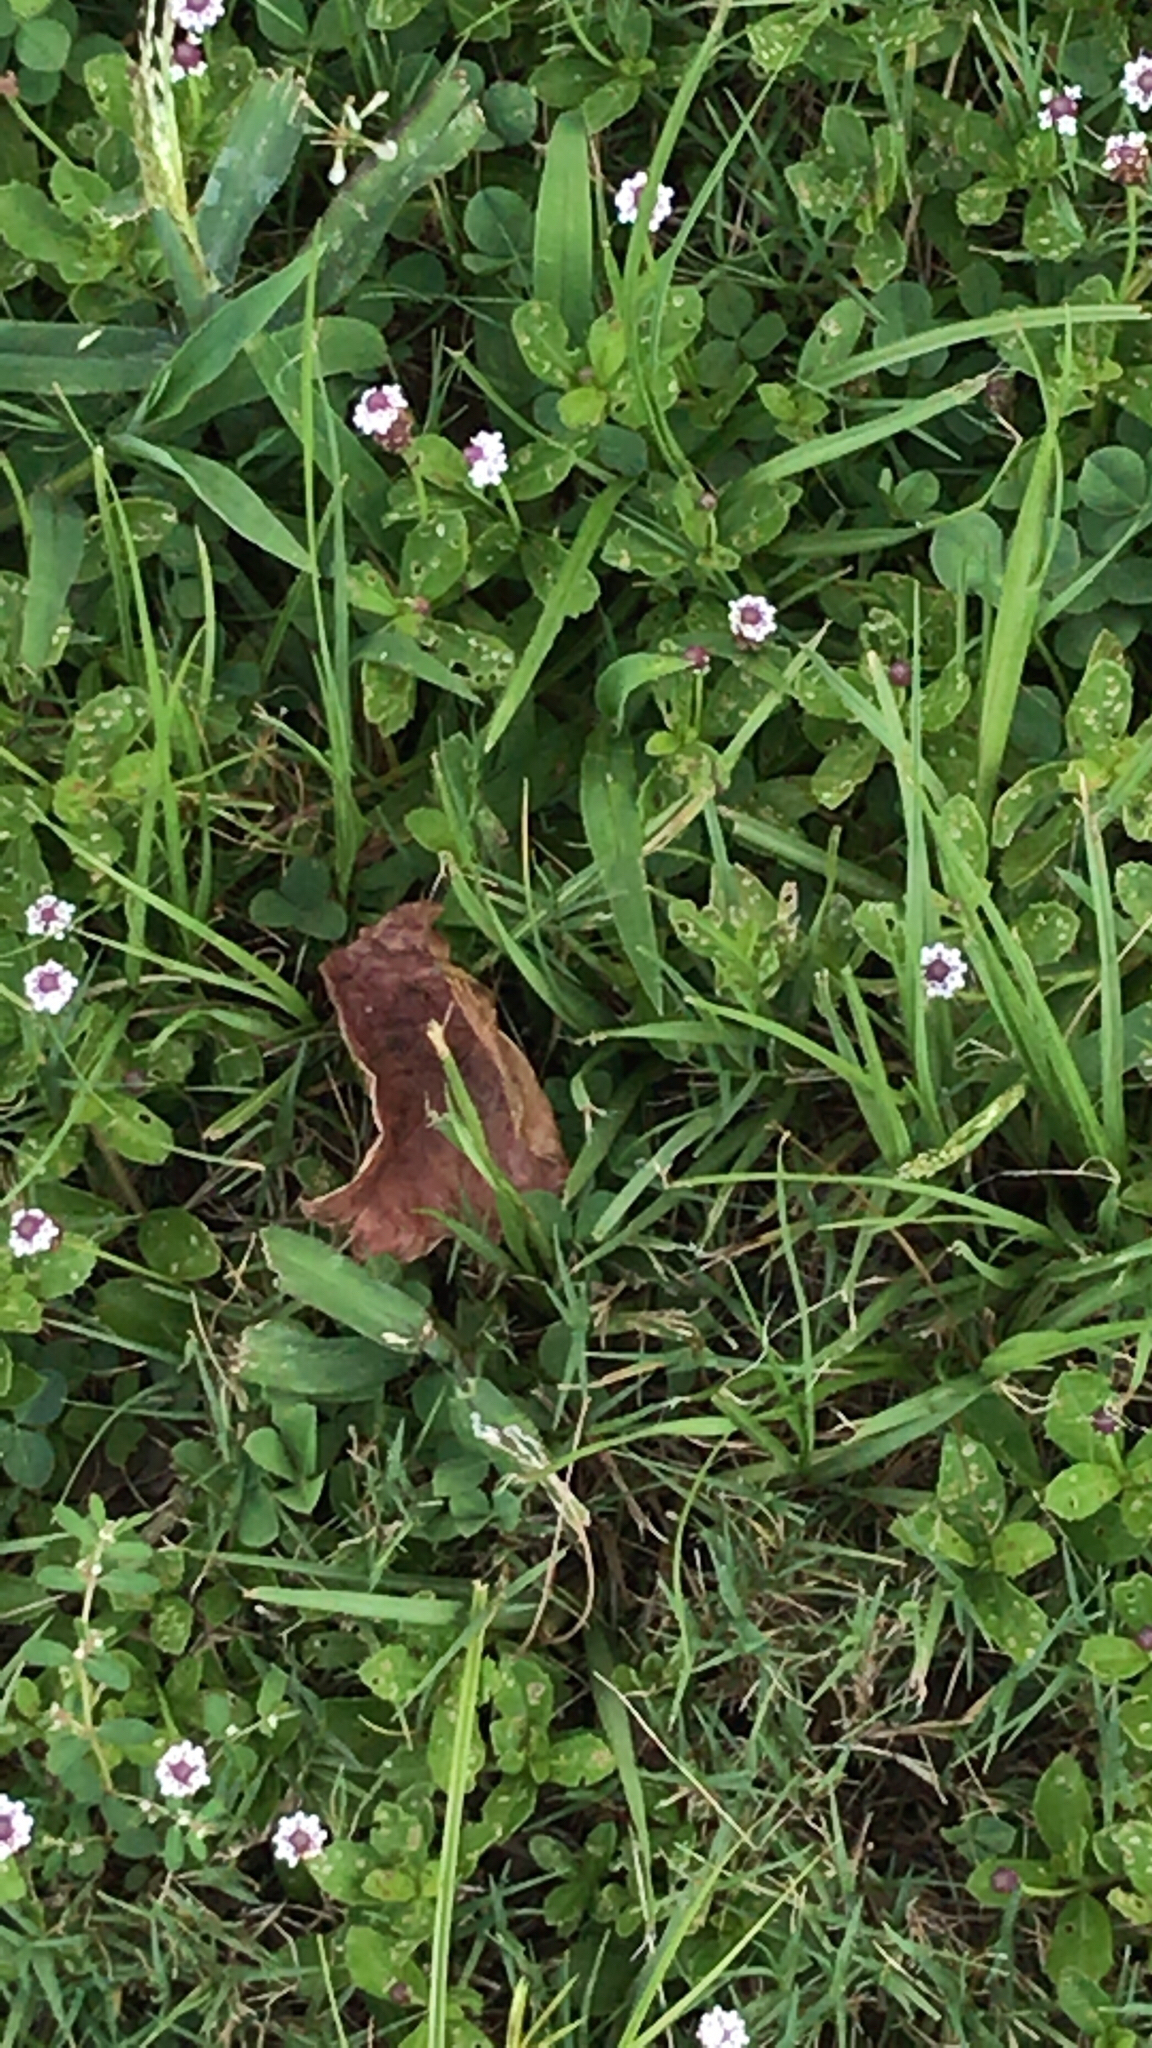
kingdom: Plantae
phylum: Tracheophyta
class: Magnoliopsida
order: Lamiales
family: Verbenaceae
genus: Phyla
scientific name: Phyla nodiflora
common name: Frogfruit
